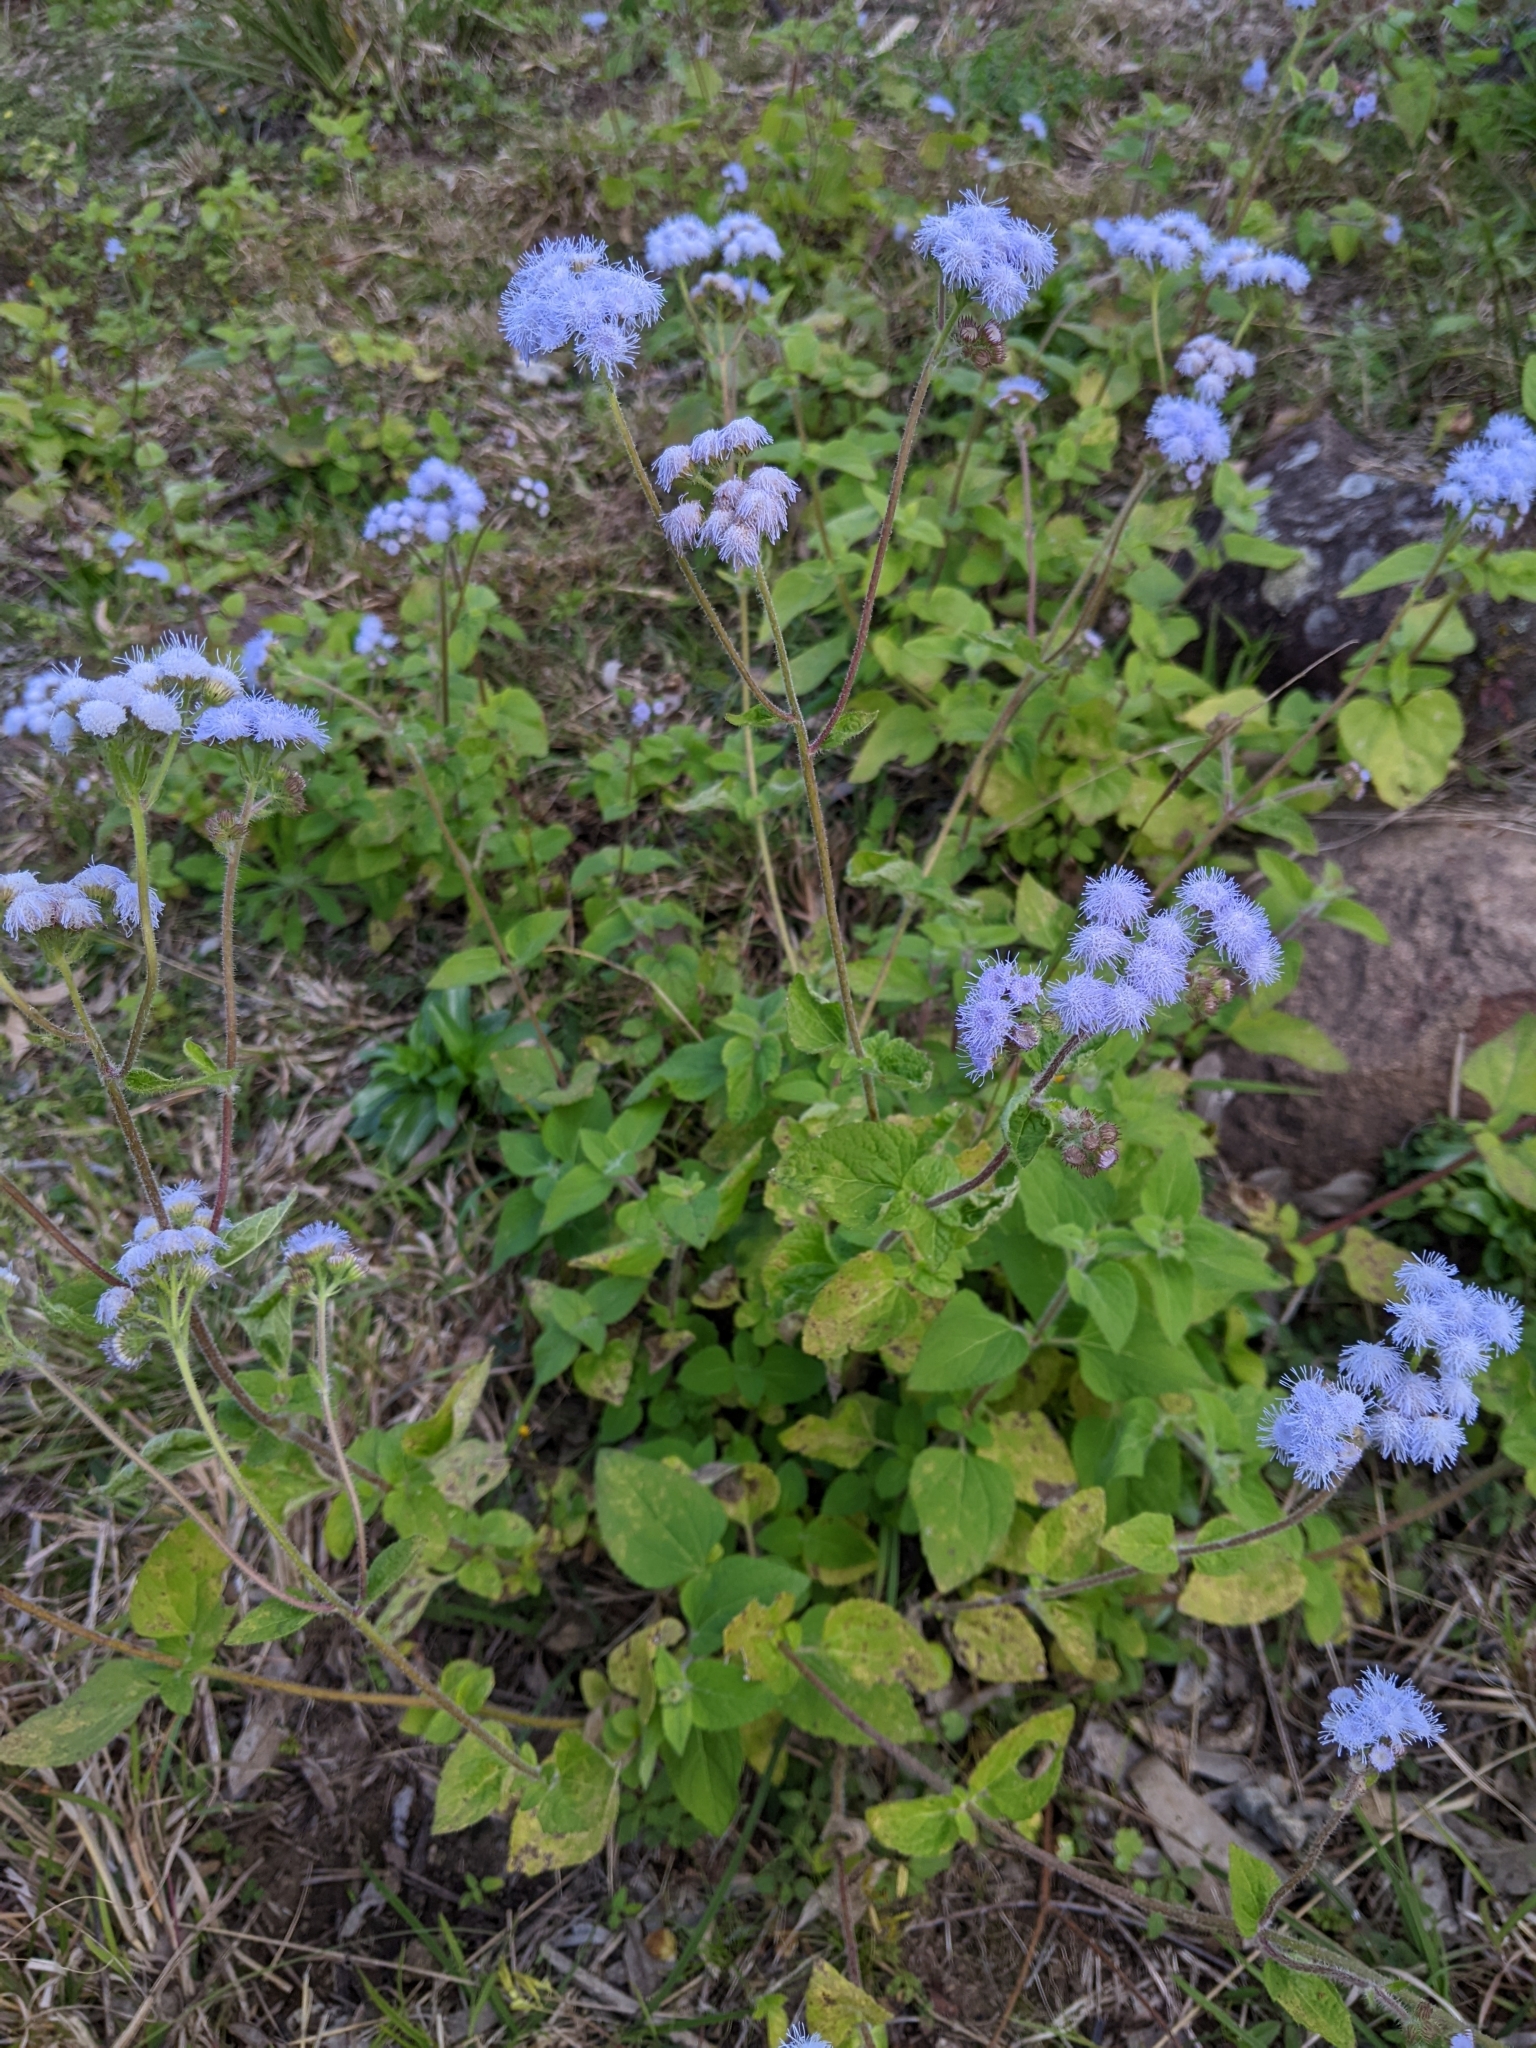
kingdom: Plantae
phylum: Tracheophyta
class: Magnoliopsida
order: Asterales
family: Asteraceae
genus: Ageratum
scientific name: Ageratum houstonianum
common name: Bluemink
